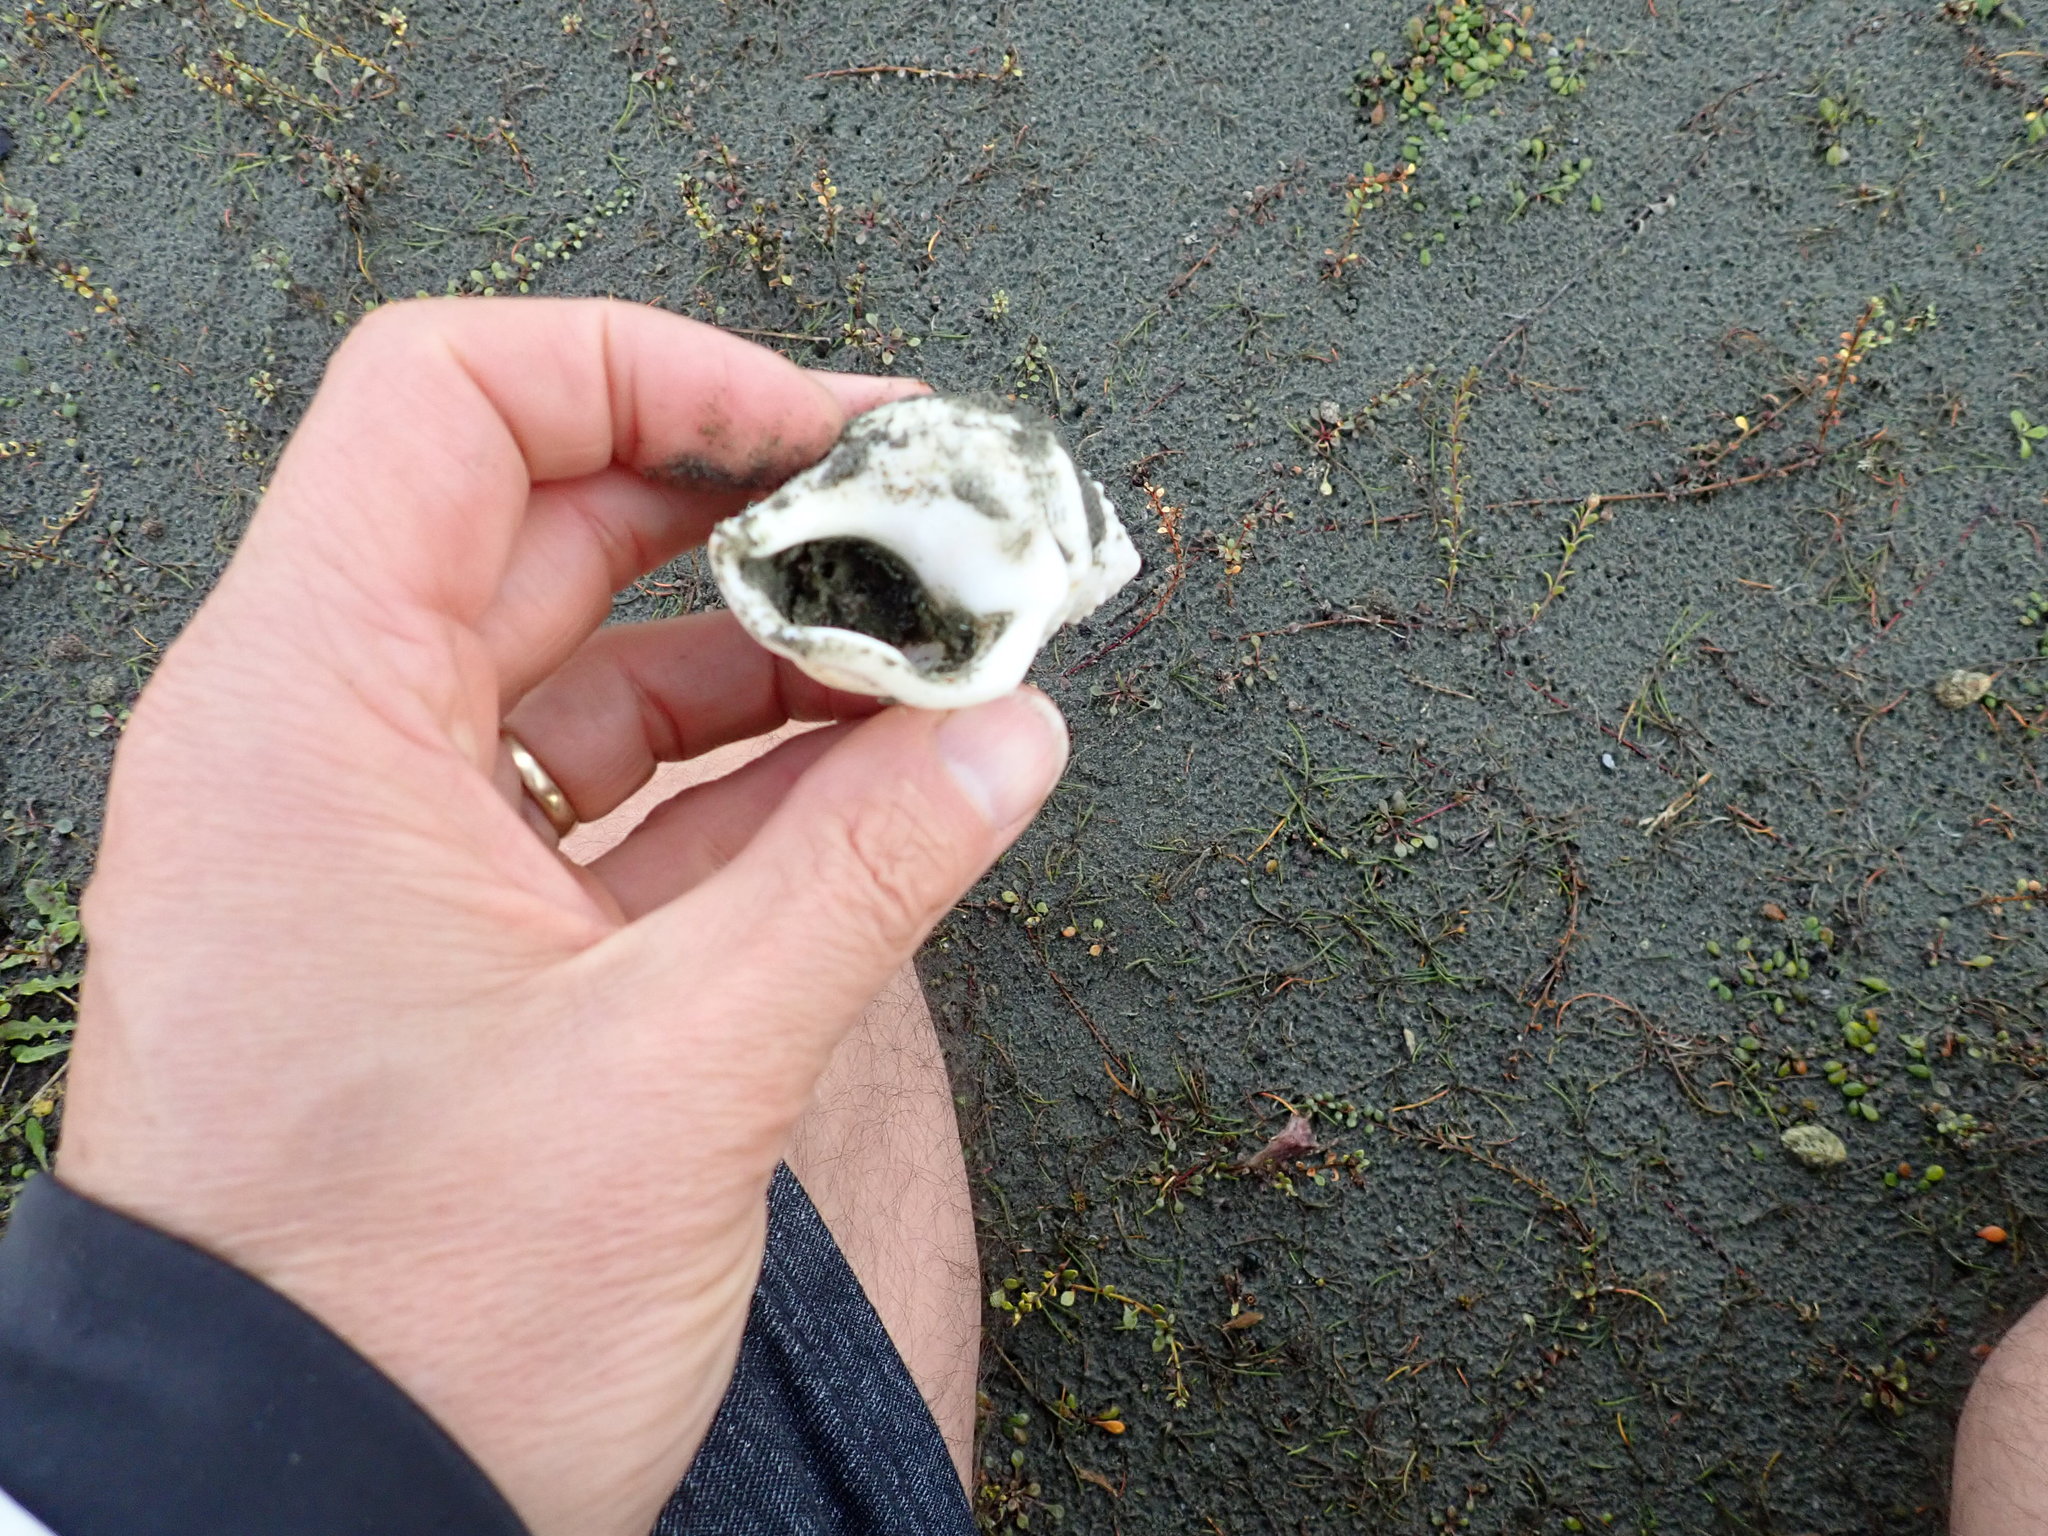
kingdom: Animalia
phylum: Mollusca
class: Gastropoda
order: Littorinimorpha
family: Struthiolariidae
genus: Struthiolaria
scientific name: Struthiolaria papulosa
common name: Large ostrich foot
